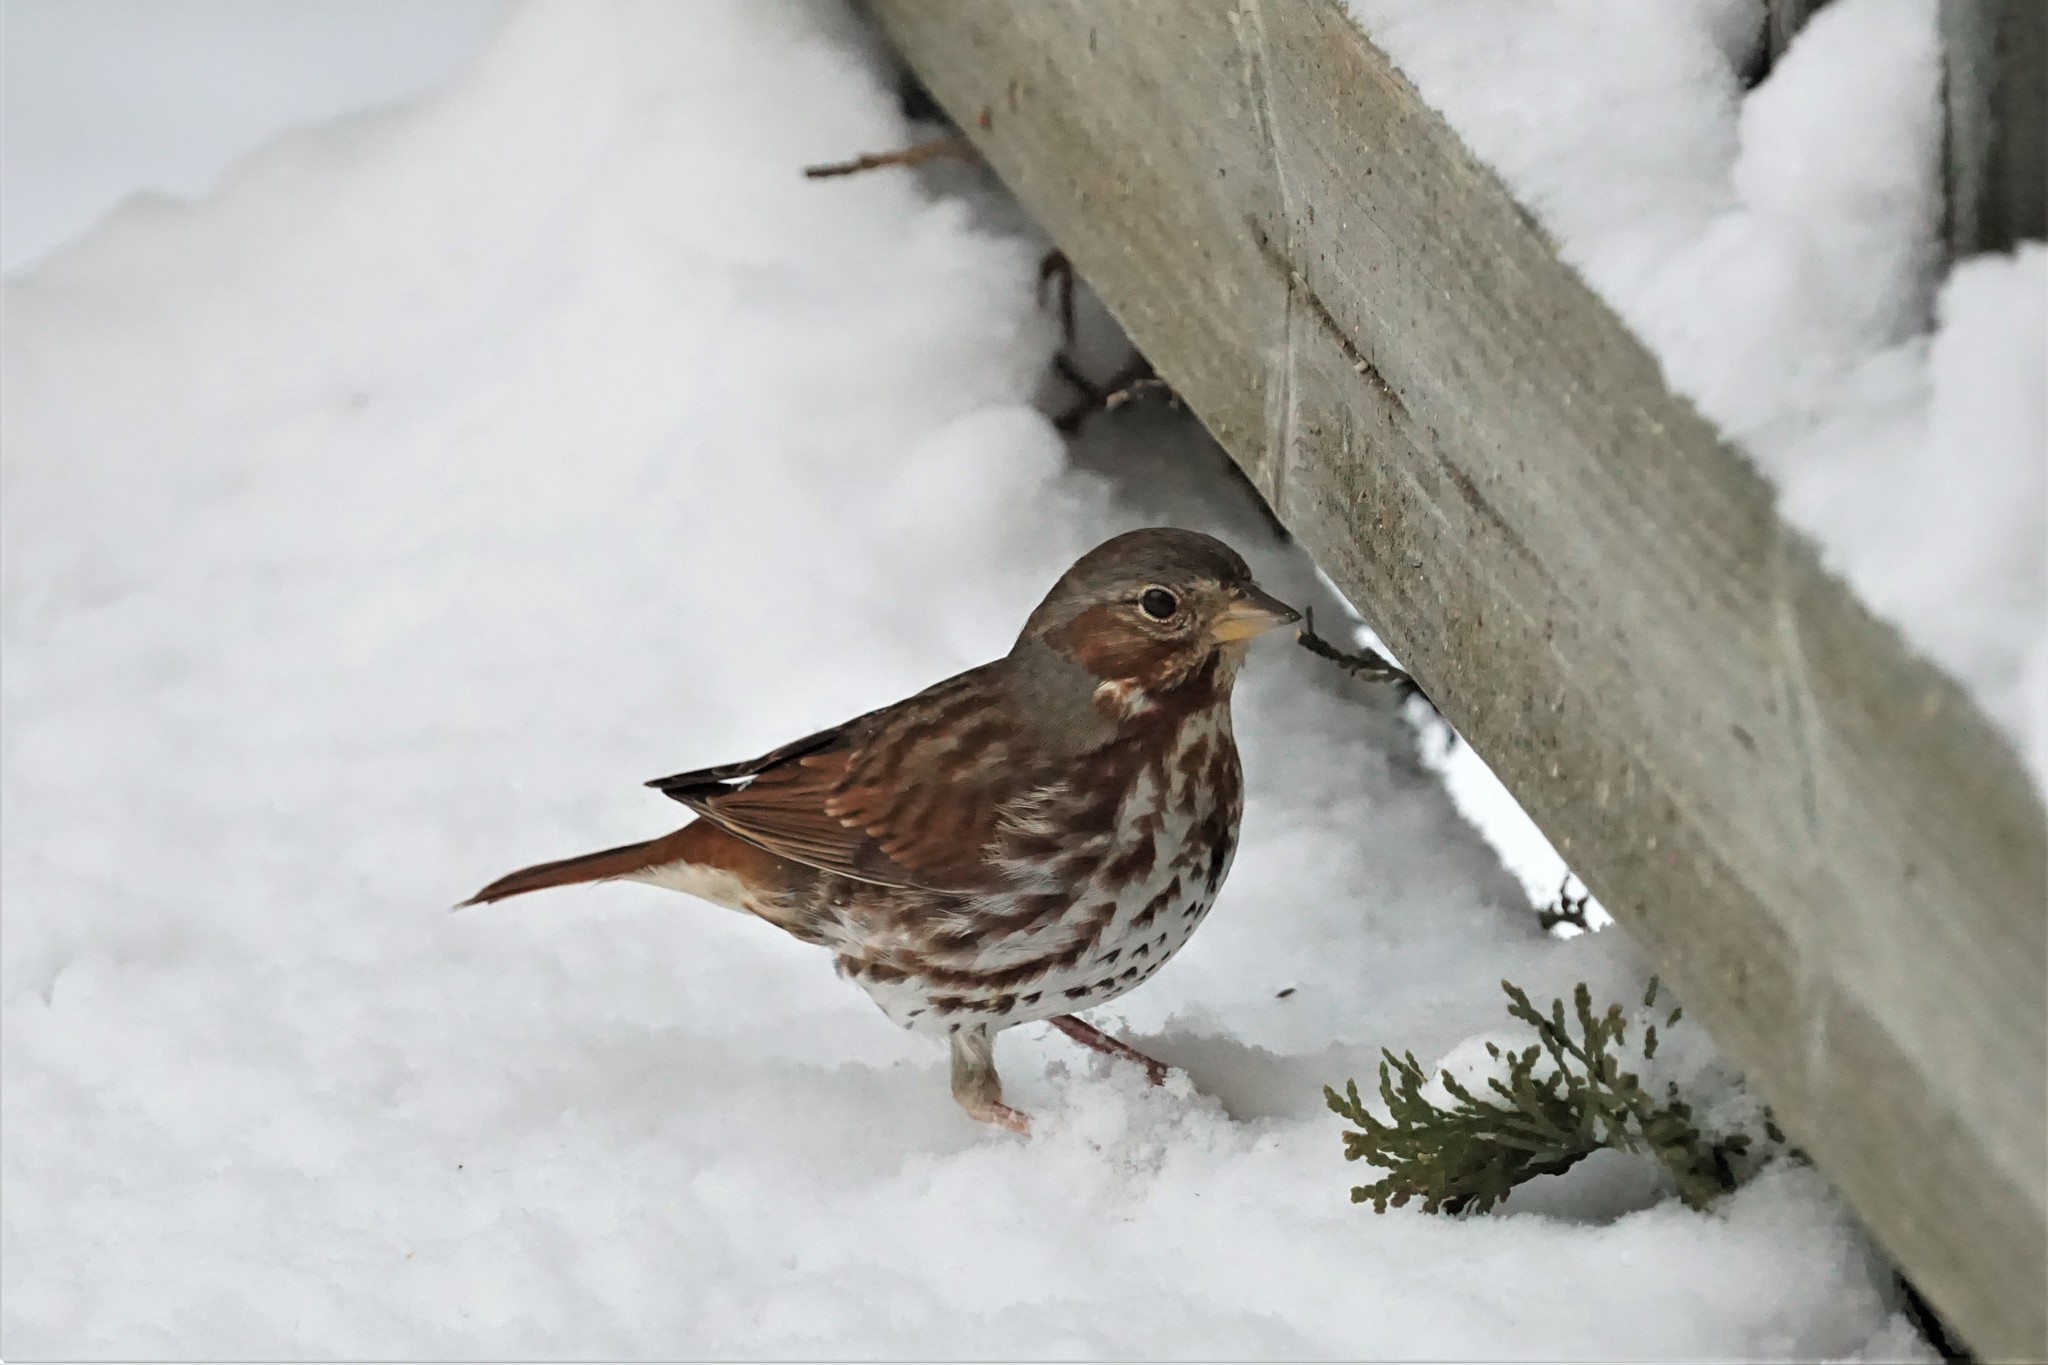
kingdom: Animalia
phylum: Chordata
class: Aves
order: Passeriformes
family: Passerellidae
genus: Passerella
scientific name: Passerella iliaca
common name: Fox sparrow
